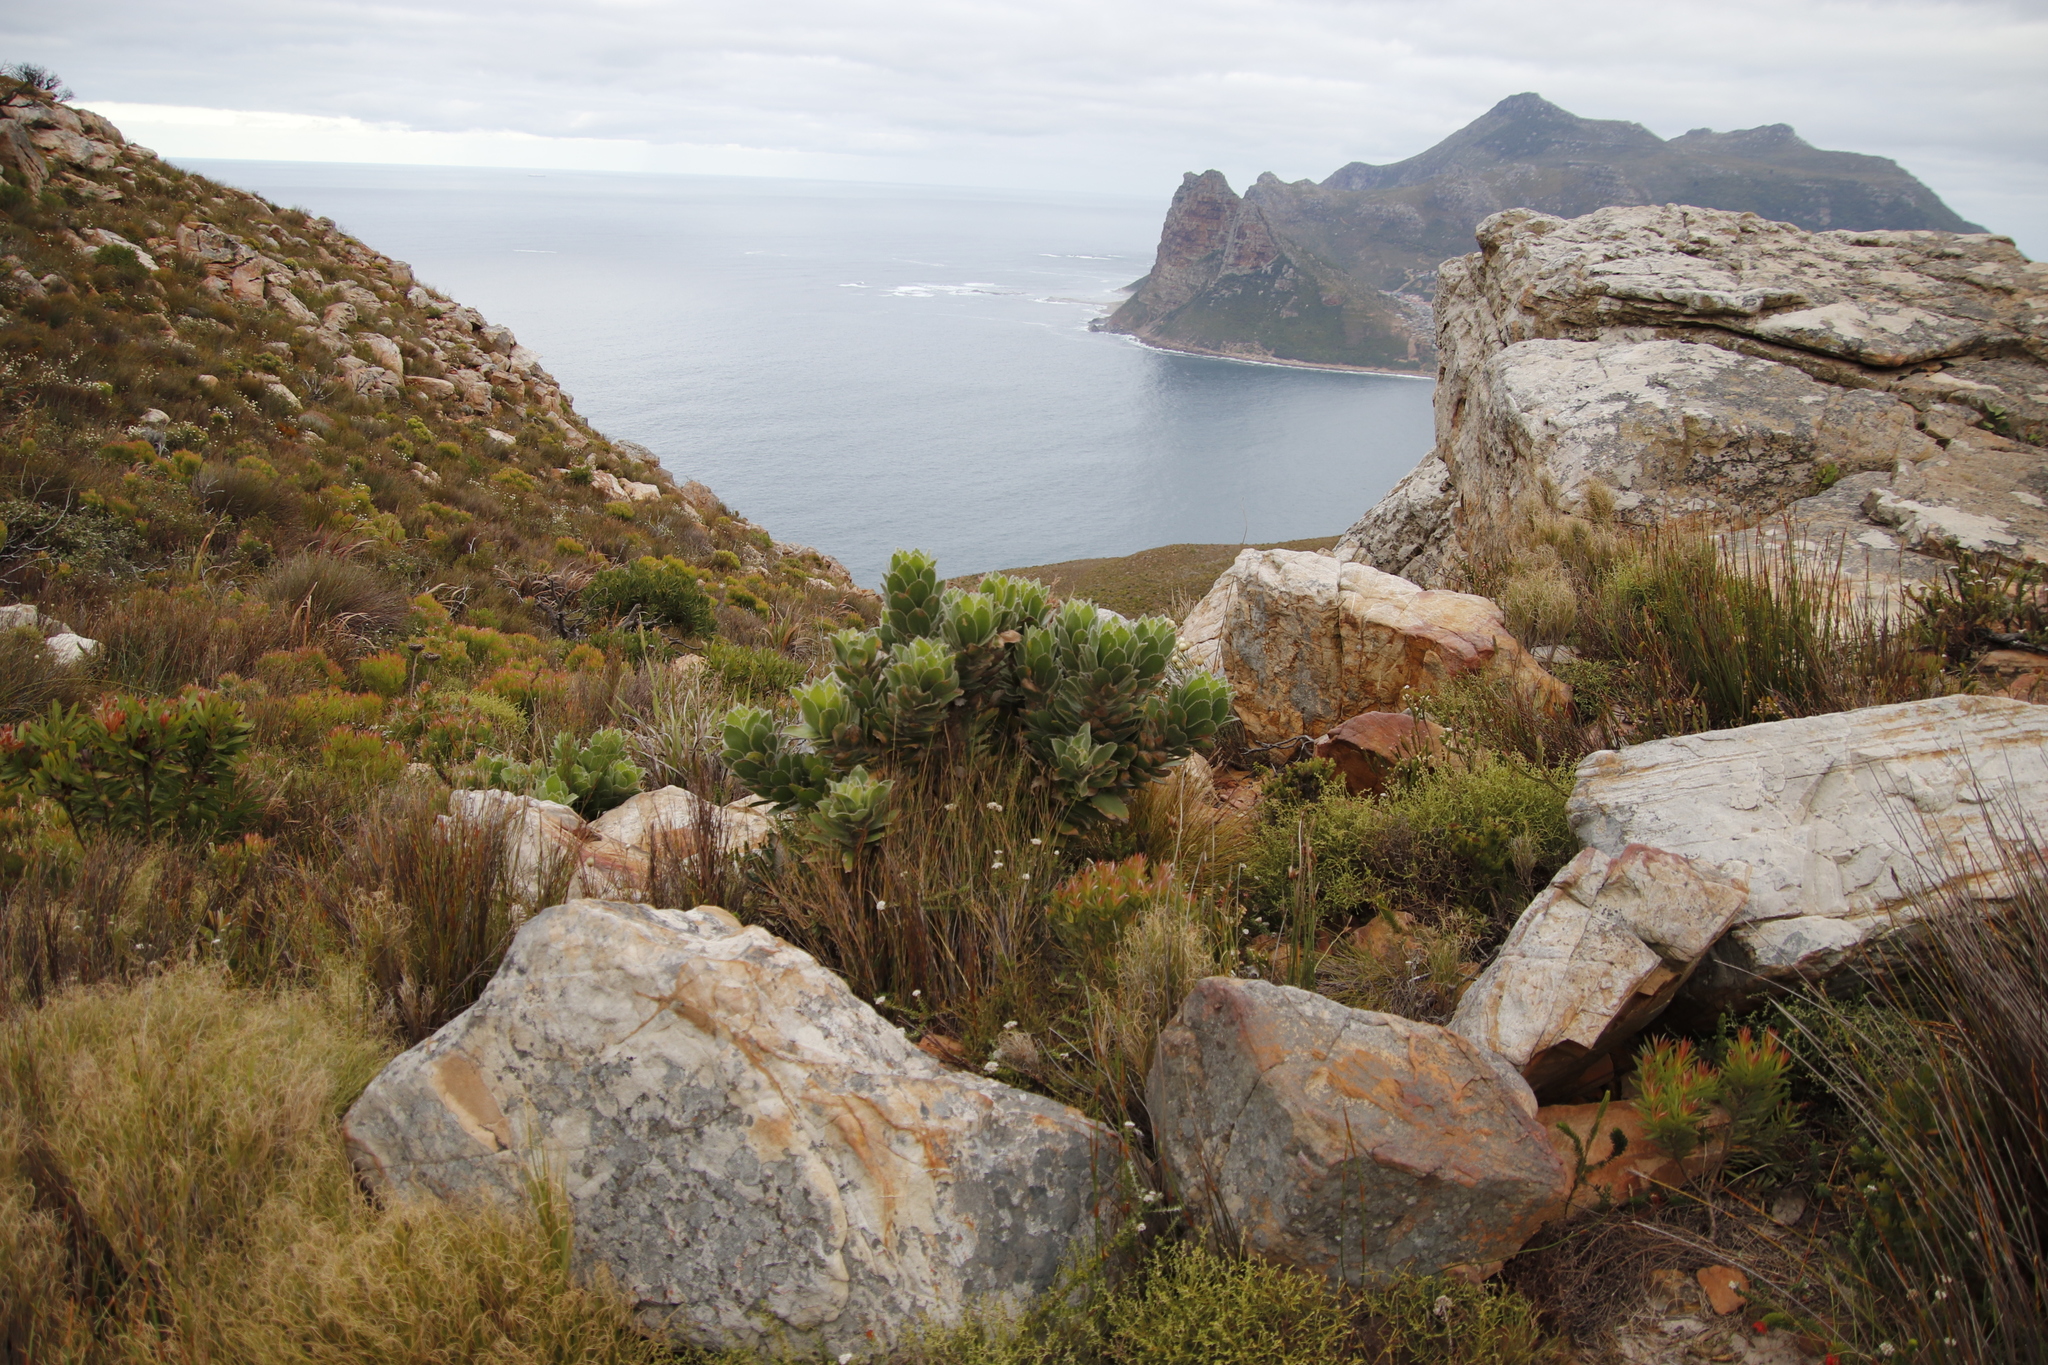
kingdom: Plantae
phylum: Tracheophyta
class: Magnoliopsida
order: Proteales
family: Proteaceae
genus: Leucospermum
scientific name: Leucospermum conocarpodendron
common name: Tree pincushion
